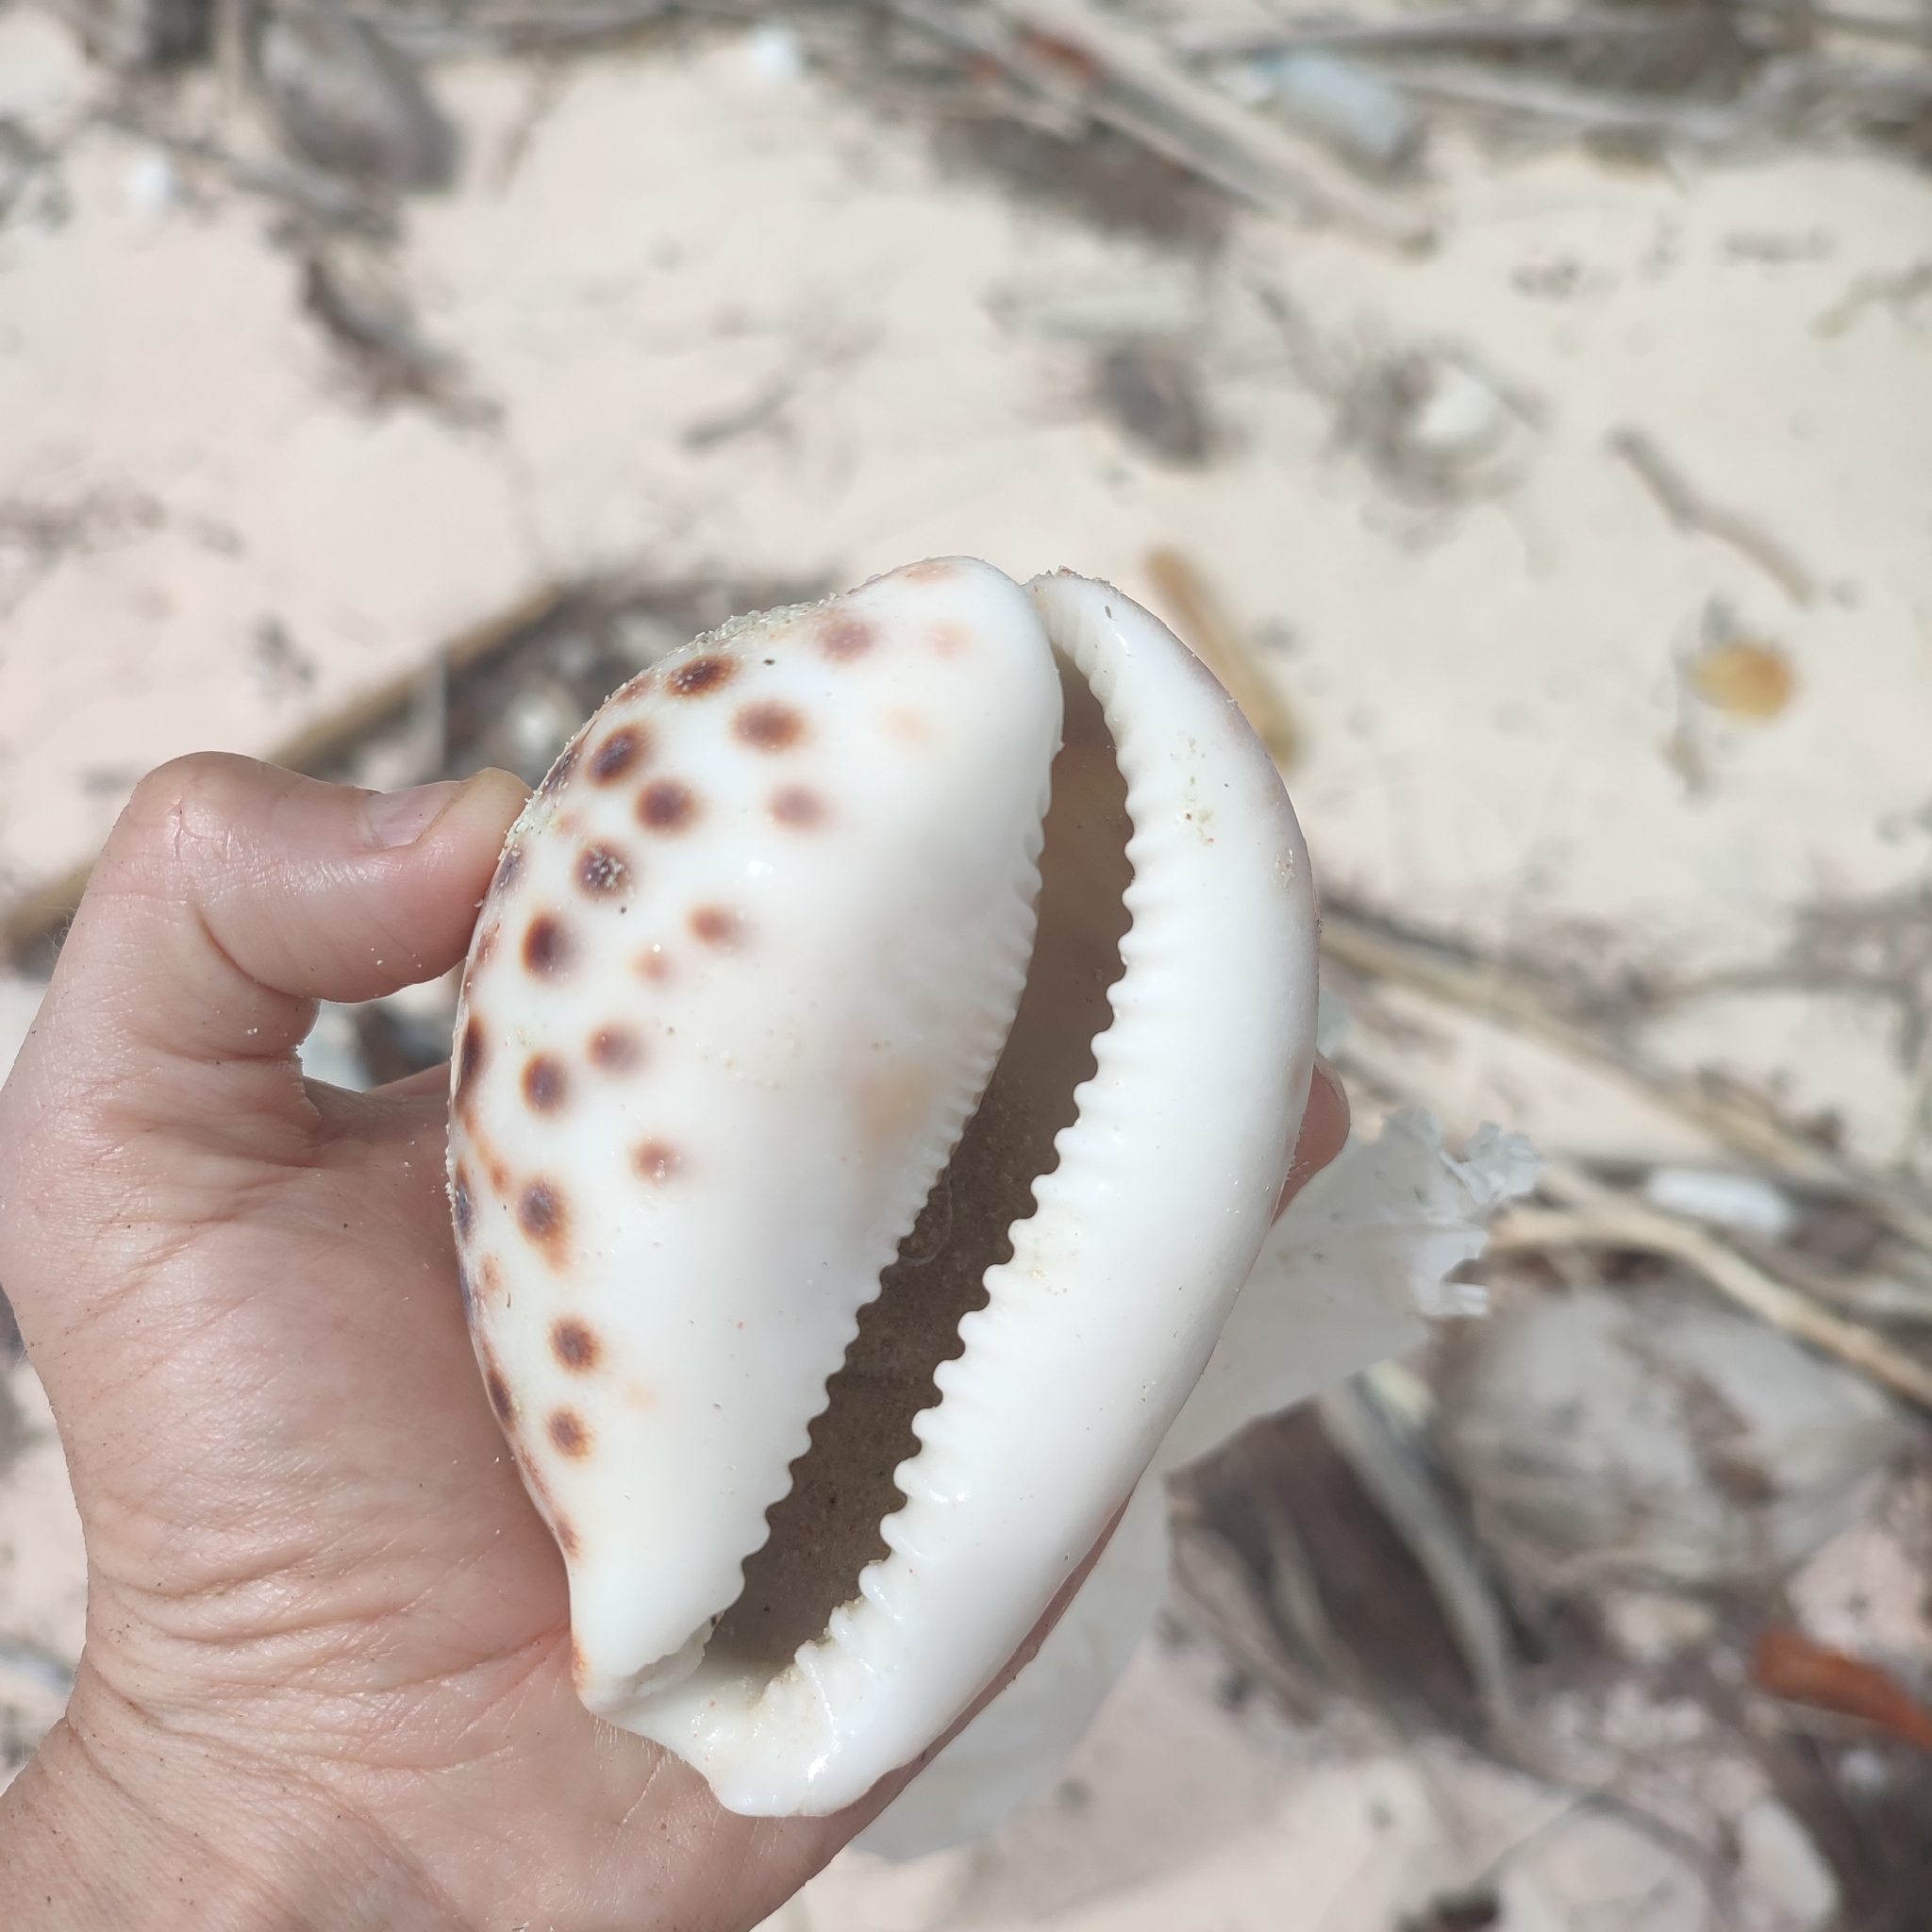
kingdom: Animalia
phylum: Mollusca
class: Gastropoda
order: Littorinimorpha
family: Cypraeidae
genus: Cypraea
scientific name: Cypraea tigris
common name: Tiger cowrie
